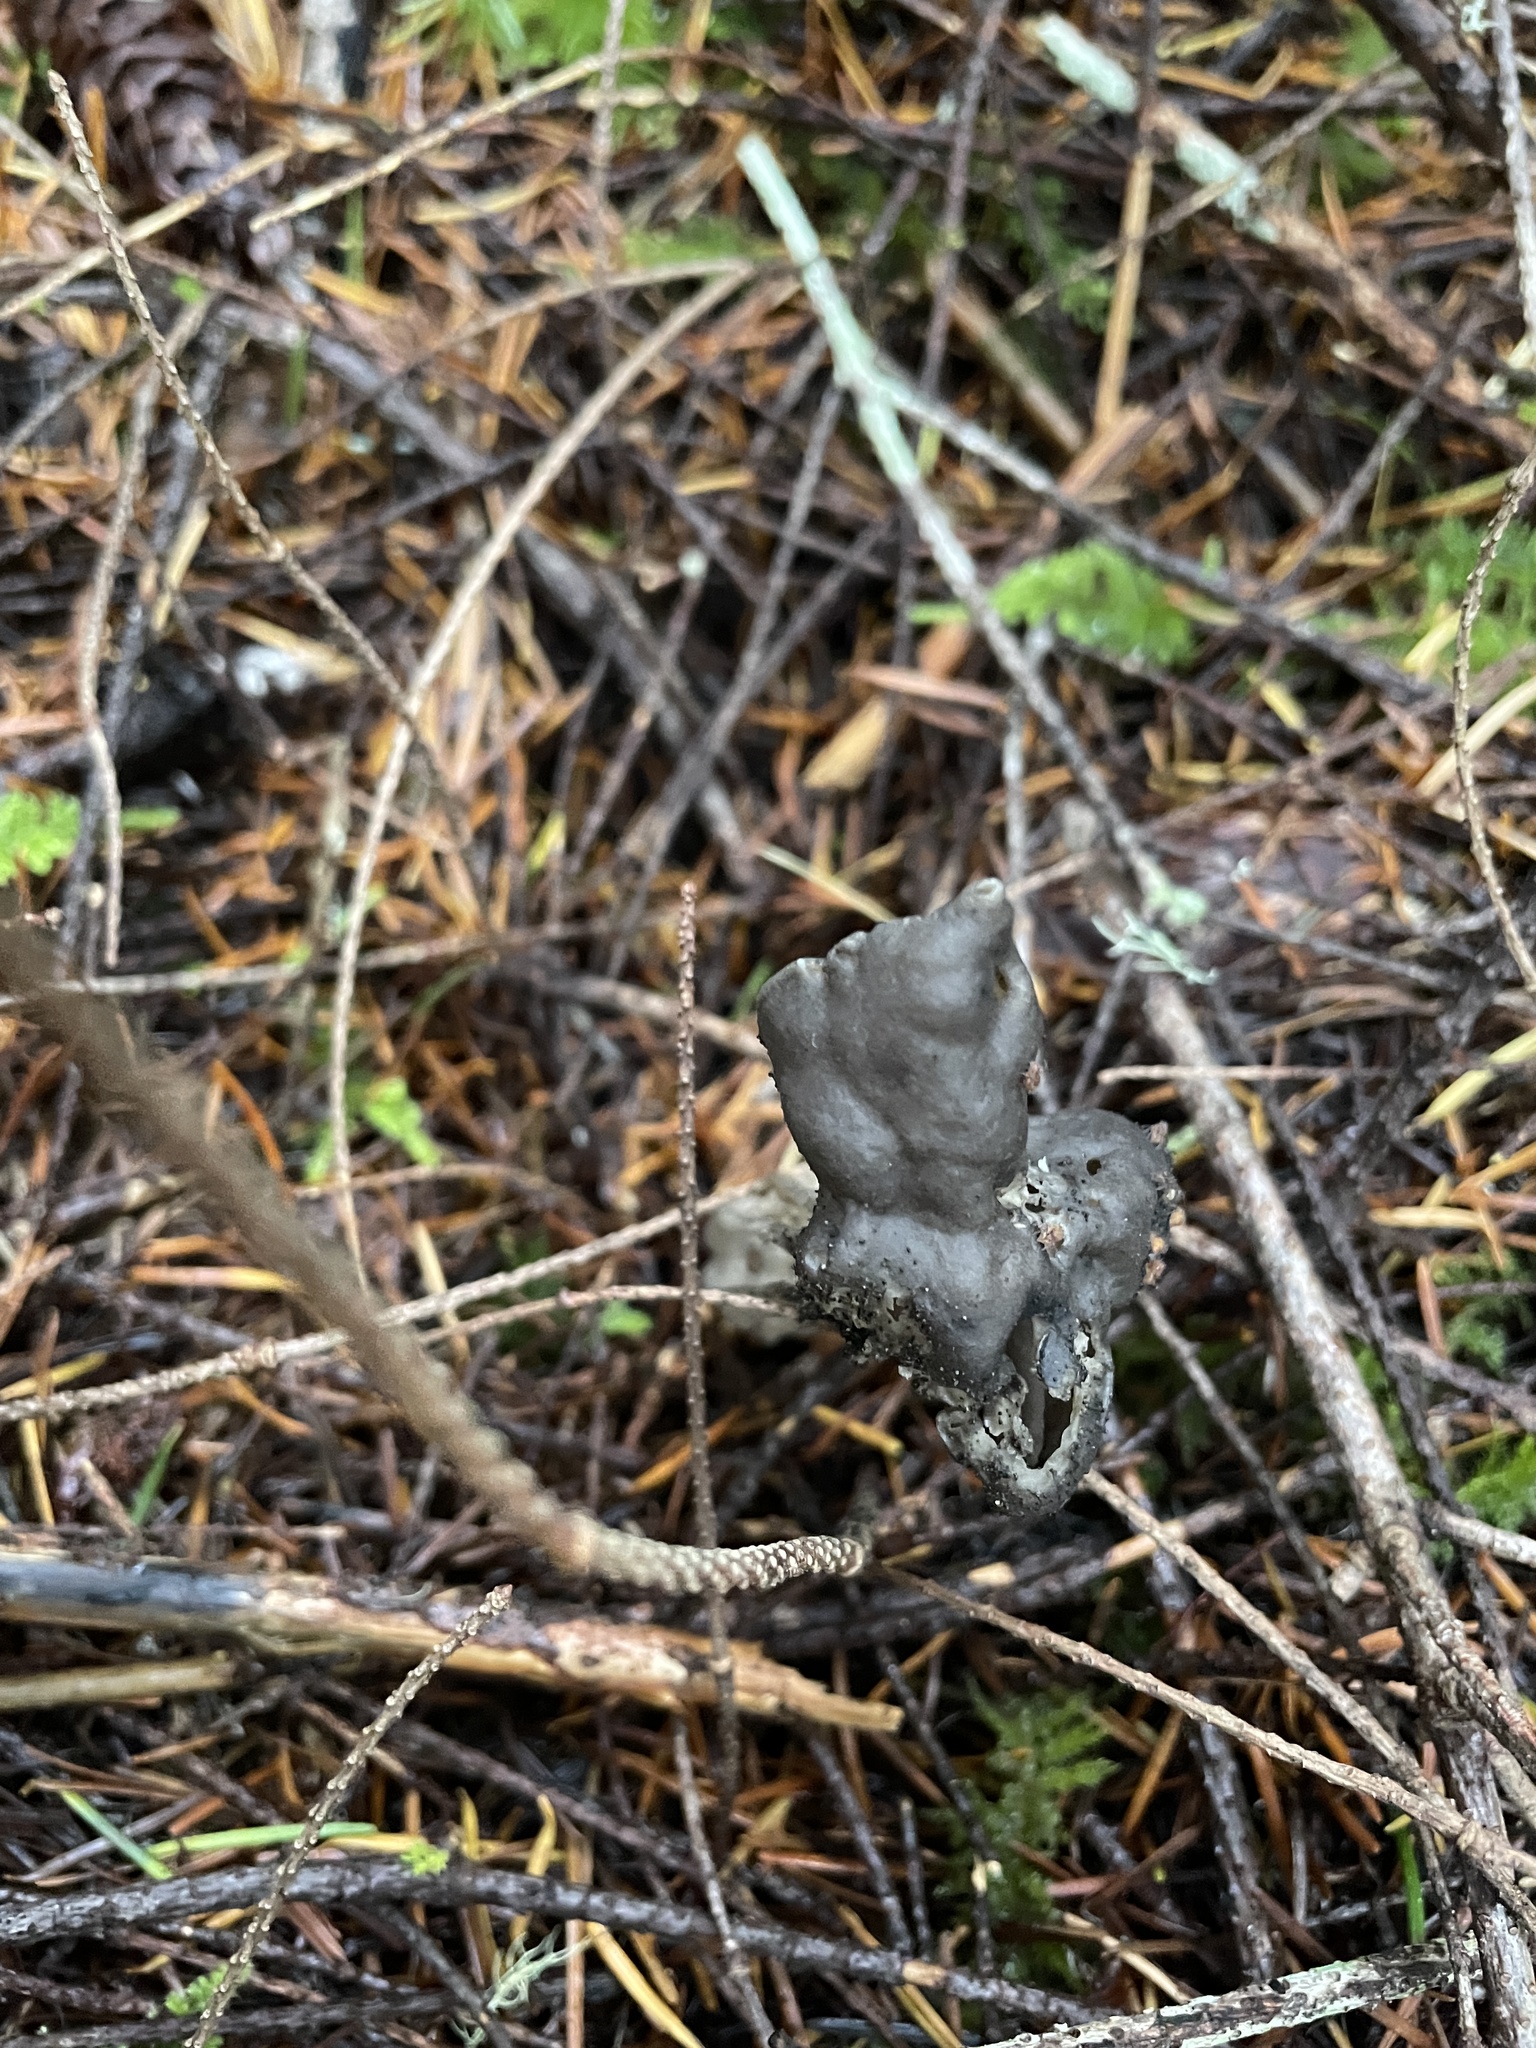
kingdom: Fungi
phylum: Ascomycota
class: Pezizomycetes
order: Pezizales
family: Helvellaceae
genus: Helvella
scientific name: Helvella vespertina
